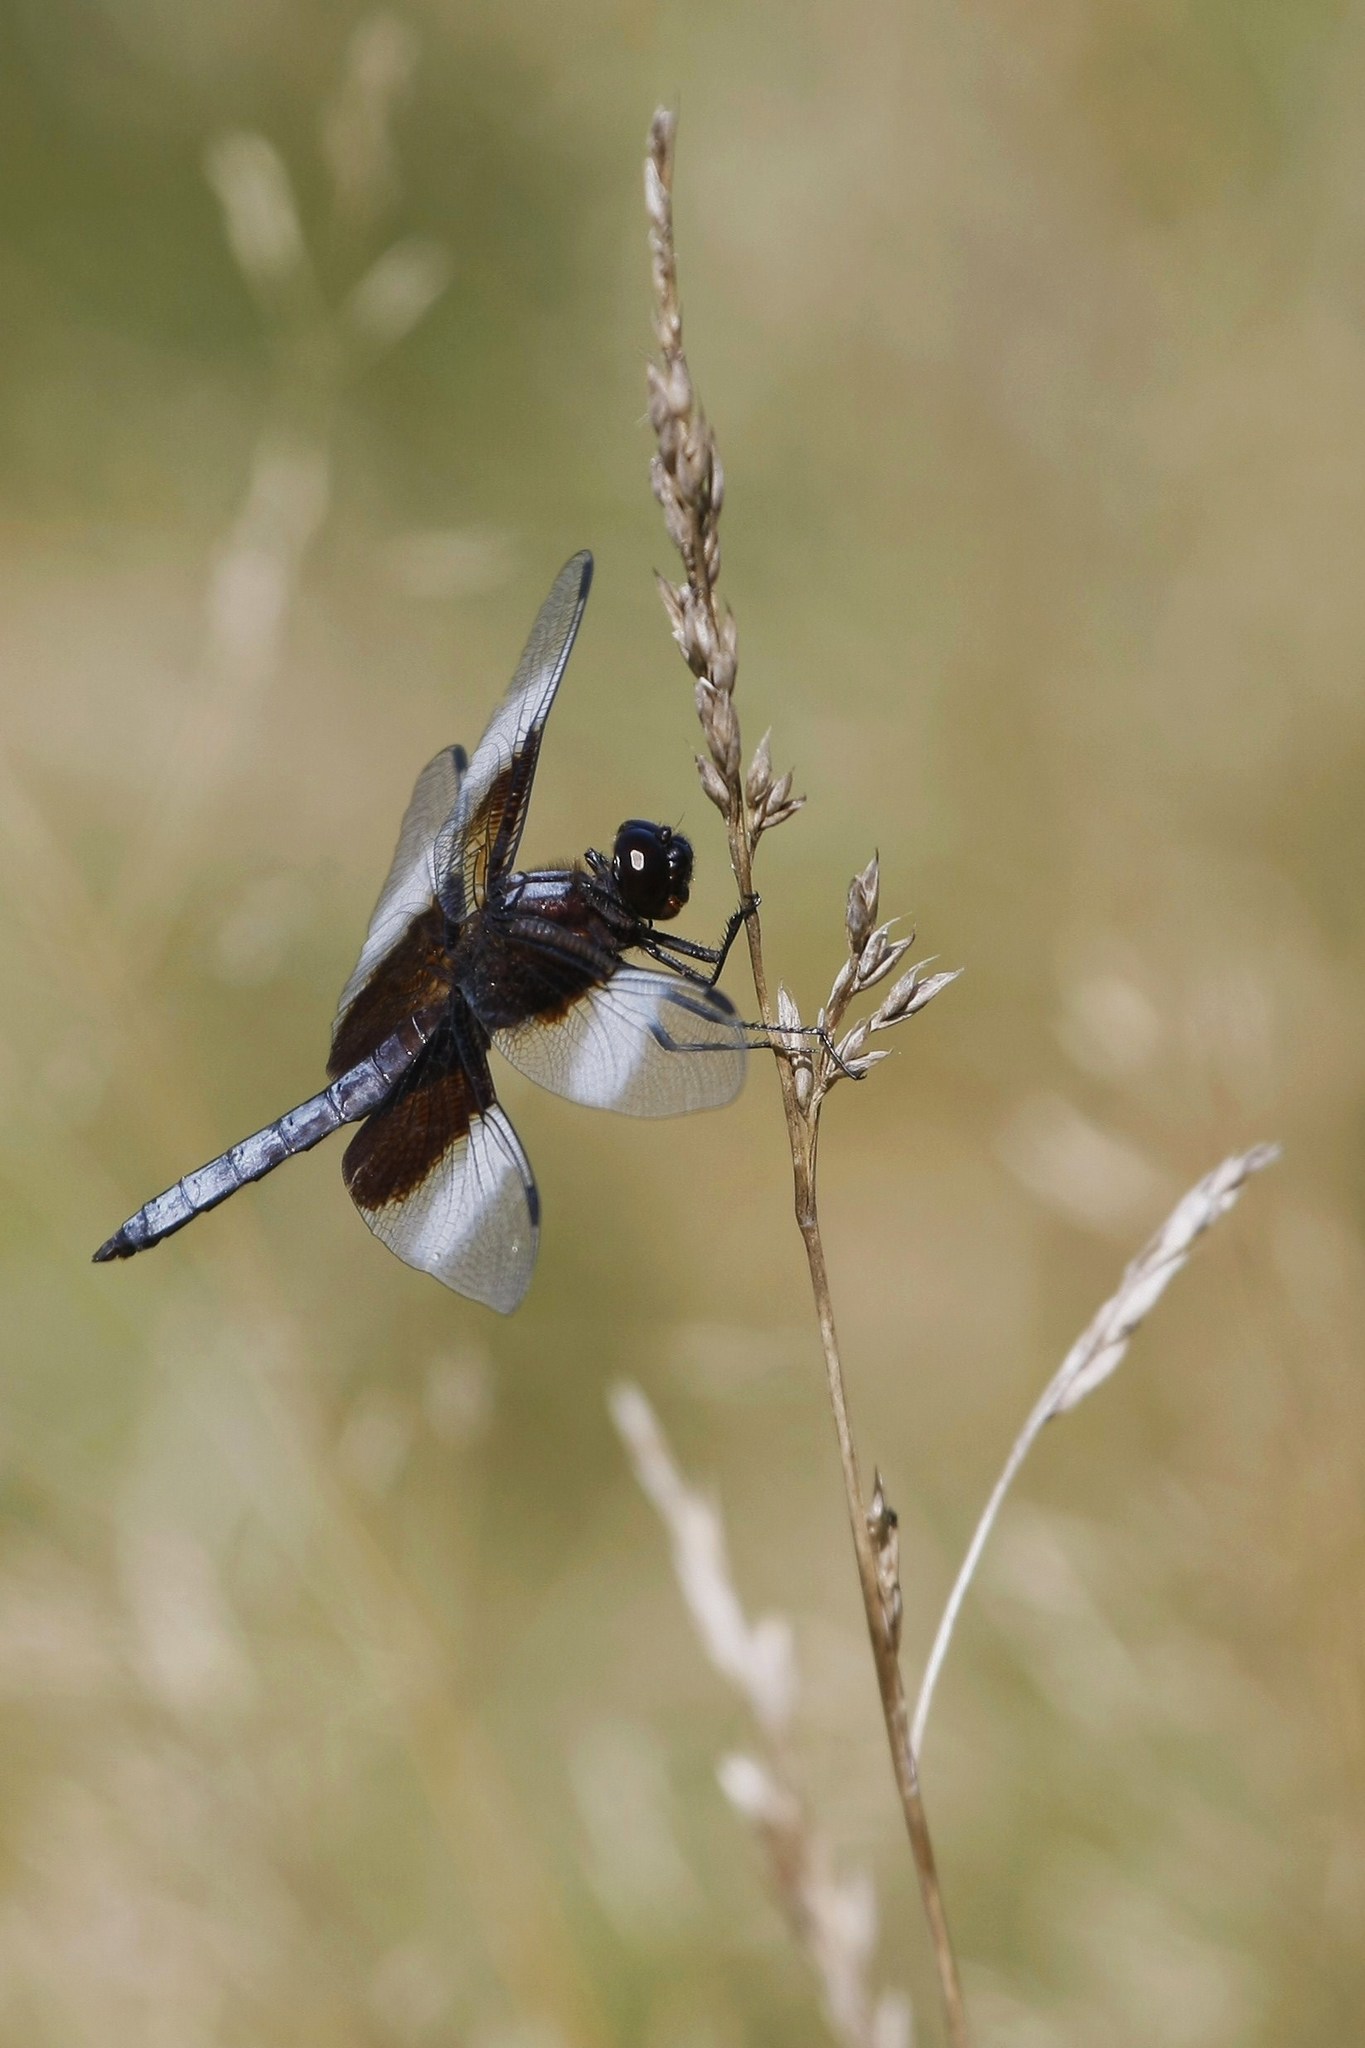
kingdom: Animalia
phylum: Arthropoda
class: Insecta
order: Odonata
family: Libellulidae
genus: Libellula
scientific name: Libellula luctuosa
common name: Widow skimmer
